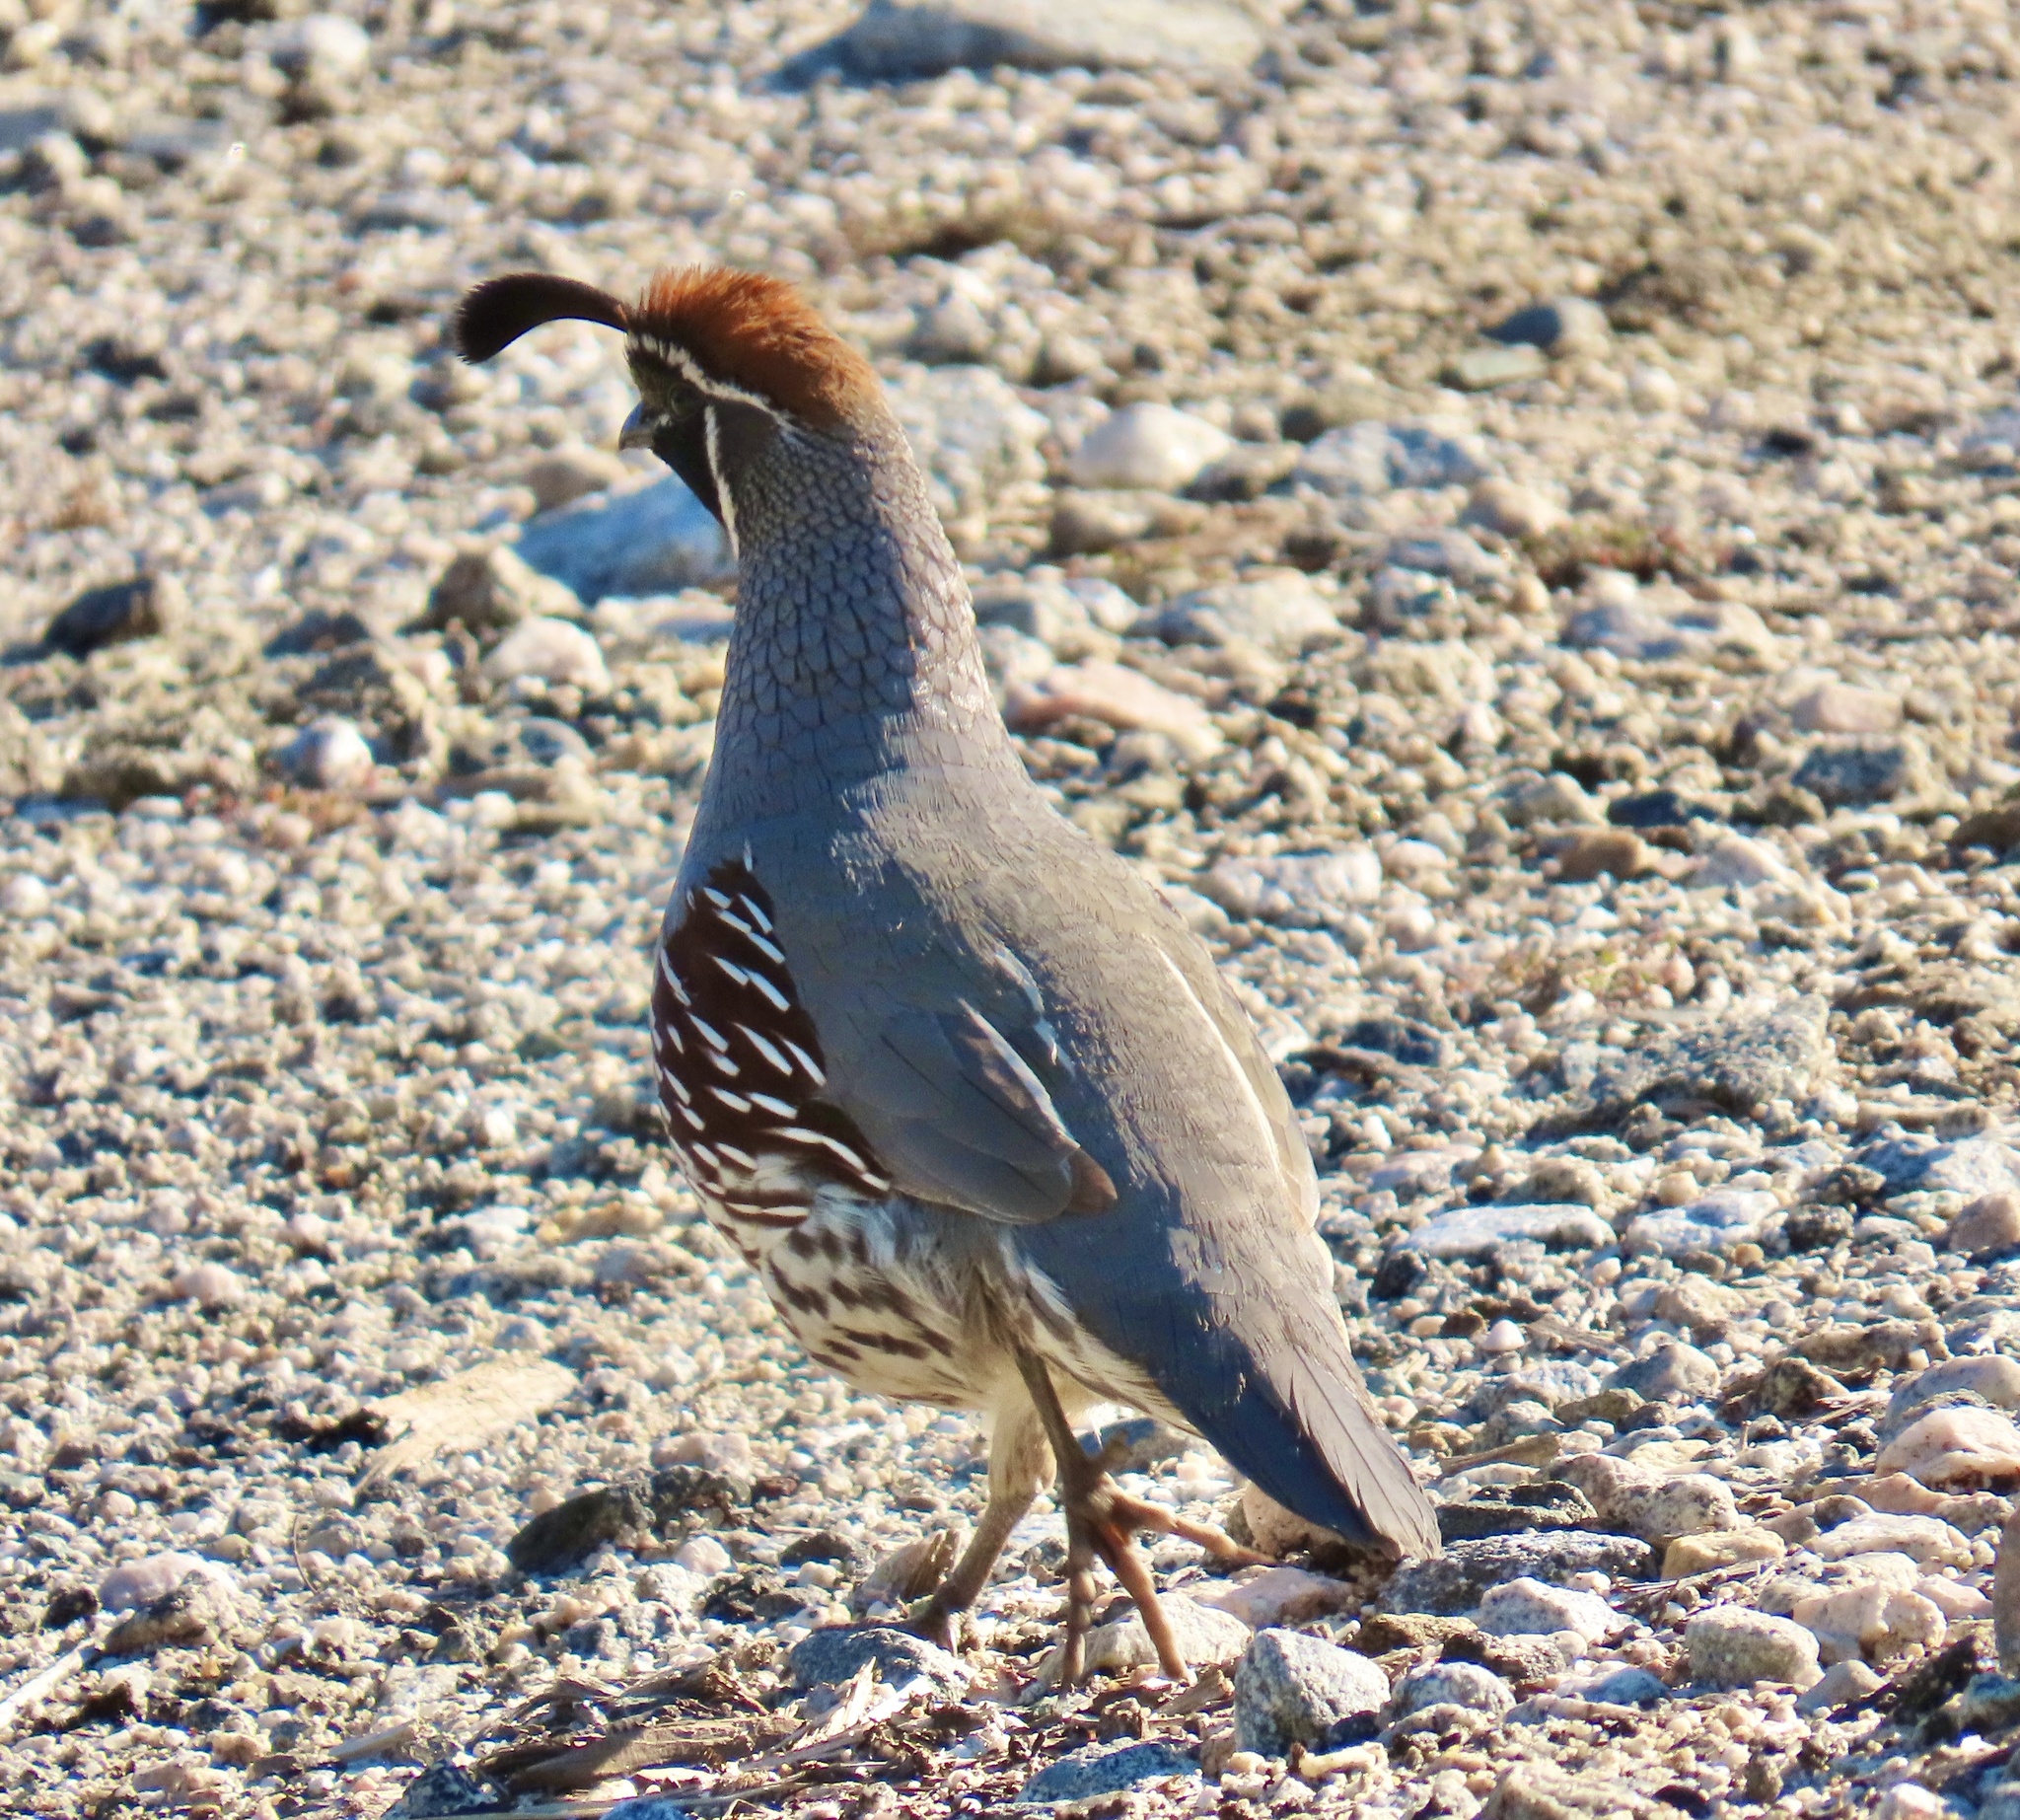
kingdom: Animalia
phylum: Chordata
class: Aves
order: Galliformes
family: Odontophoridae
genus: Callipepla
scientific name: Callipepla gambelii
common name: Gambel's quail
